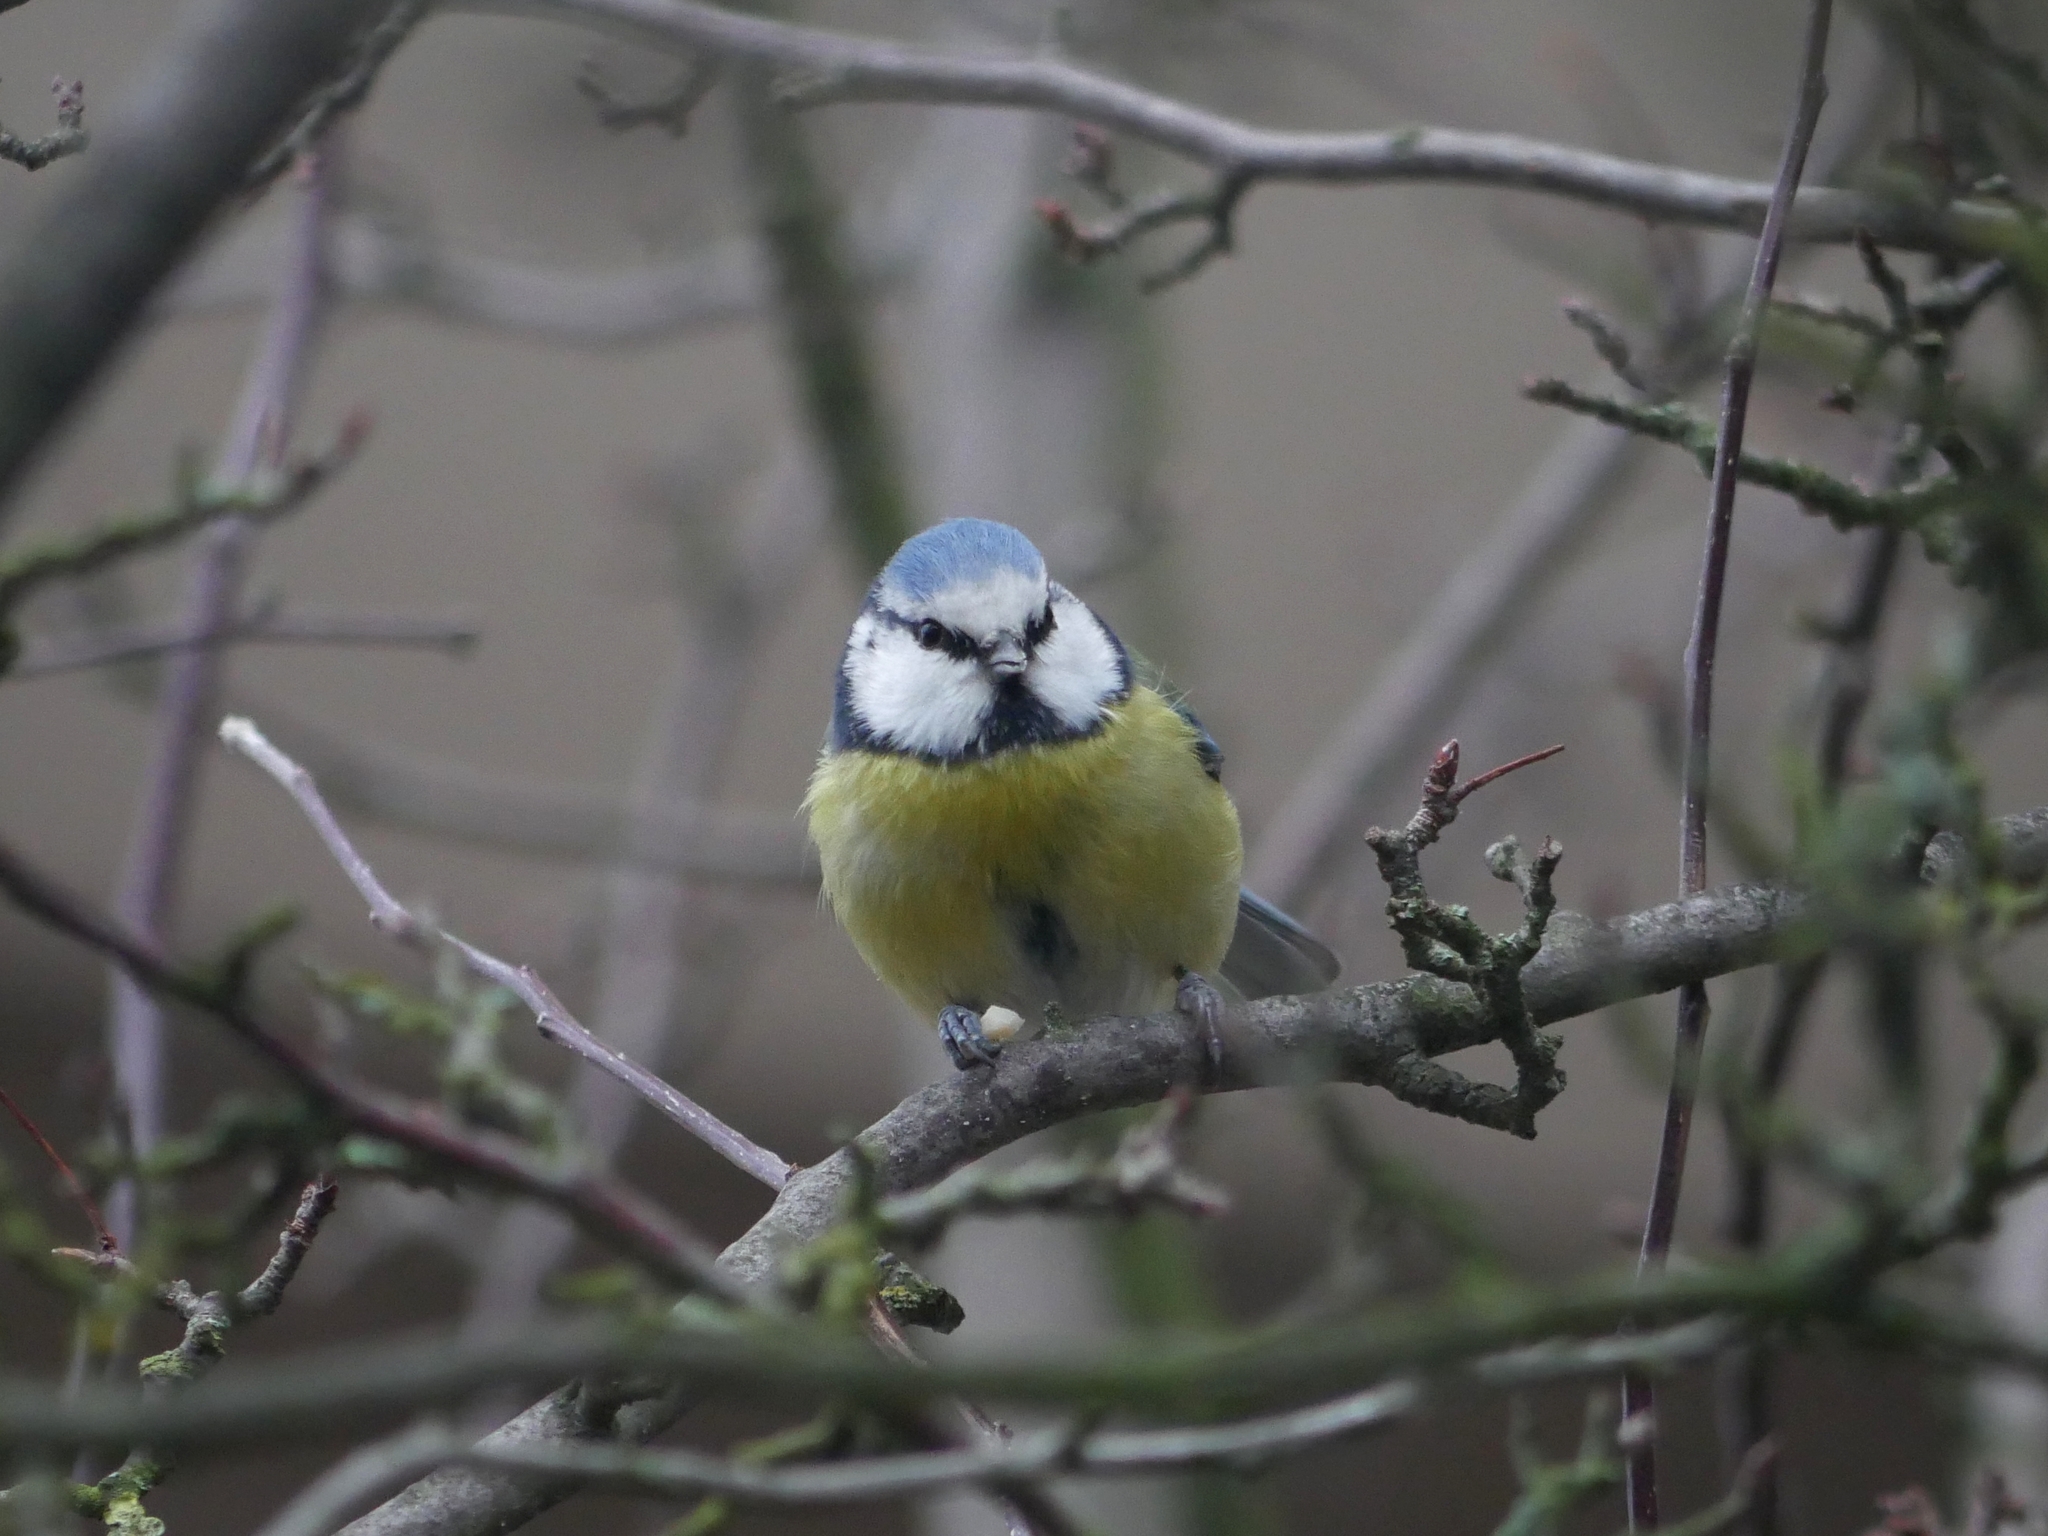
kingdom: Animalia
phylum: Chordata
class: Aves
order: Passeriformes
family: Paridae
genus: Cyanistes
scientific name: Cyanistes caeruleus
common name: Eurasian blue tit
